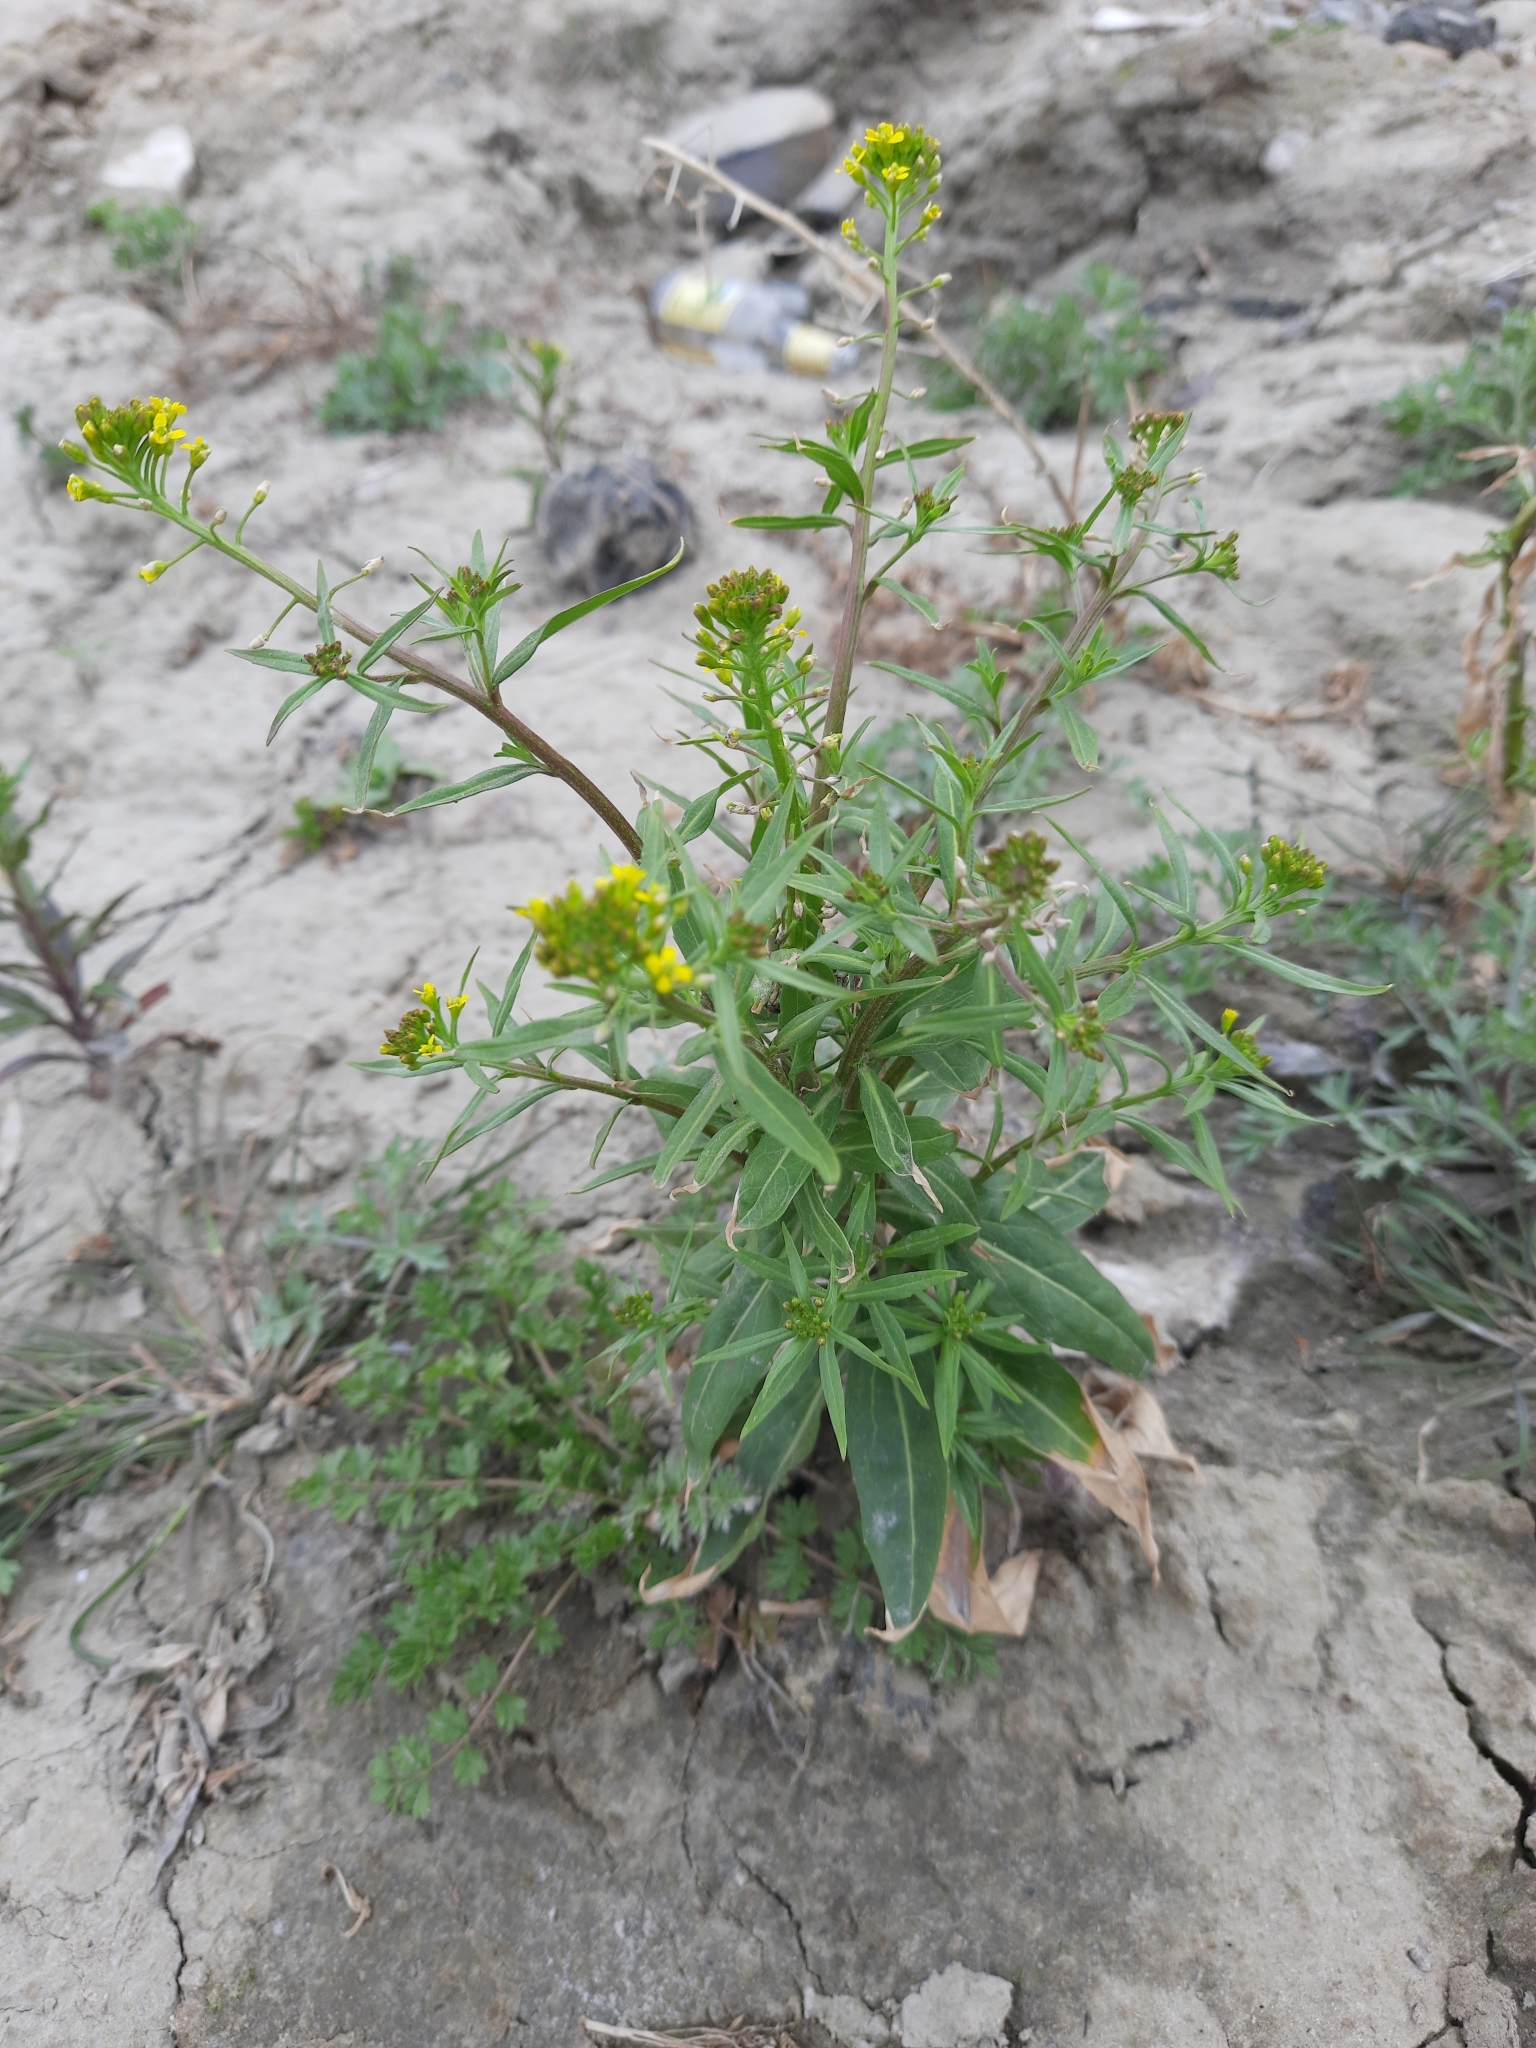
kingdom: Plantae
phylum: Tracheophyta
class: Magnoliopsida
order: Brassicales
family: Brassicaceae
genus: Erysimum
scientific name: Erysimum cheiranthoides
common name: Treacle mustard
